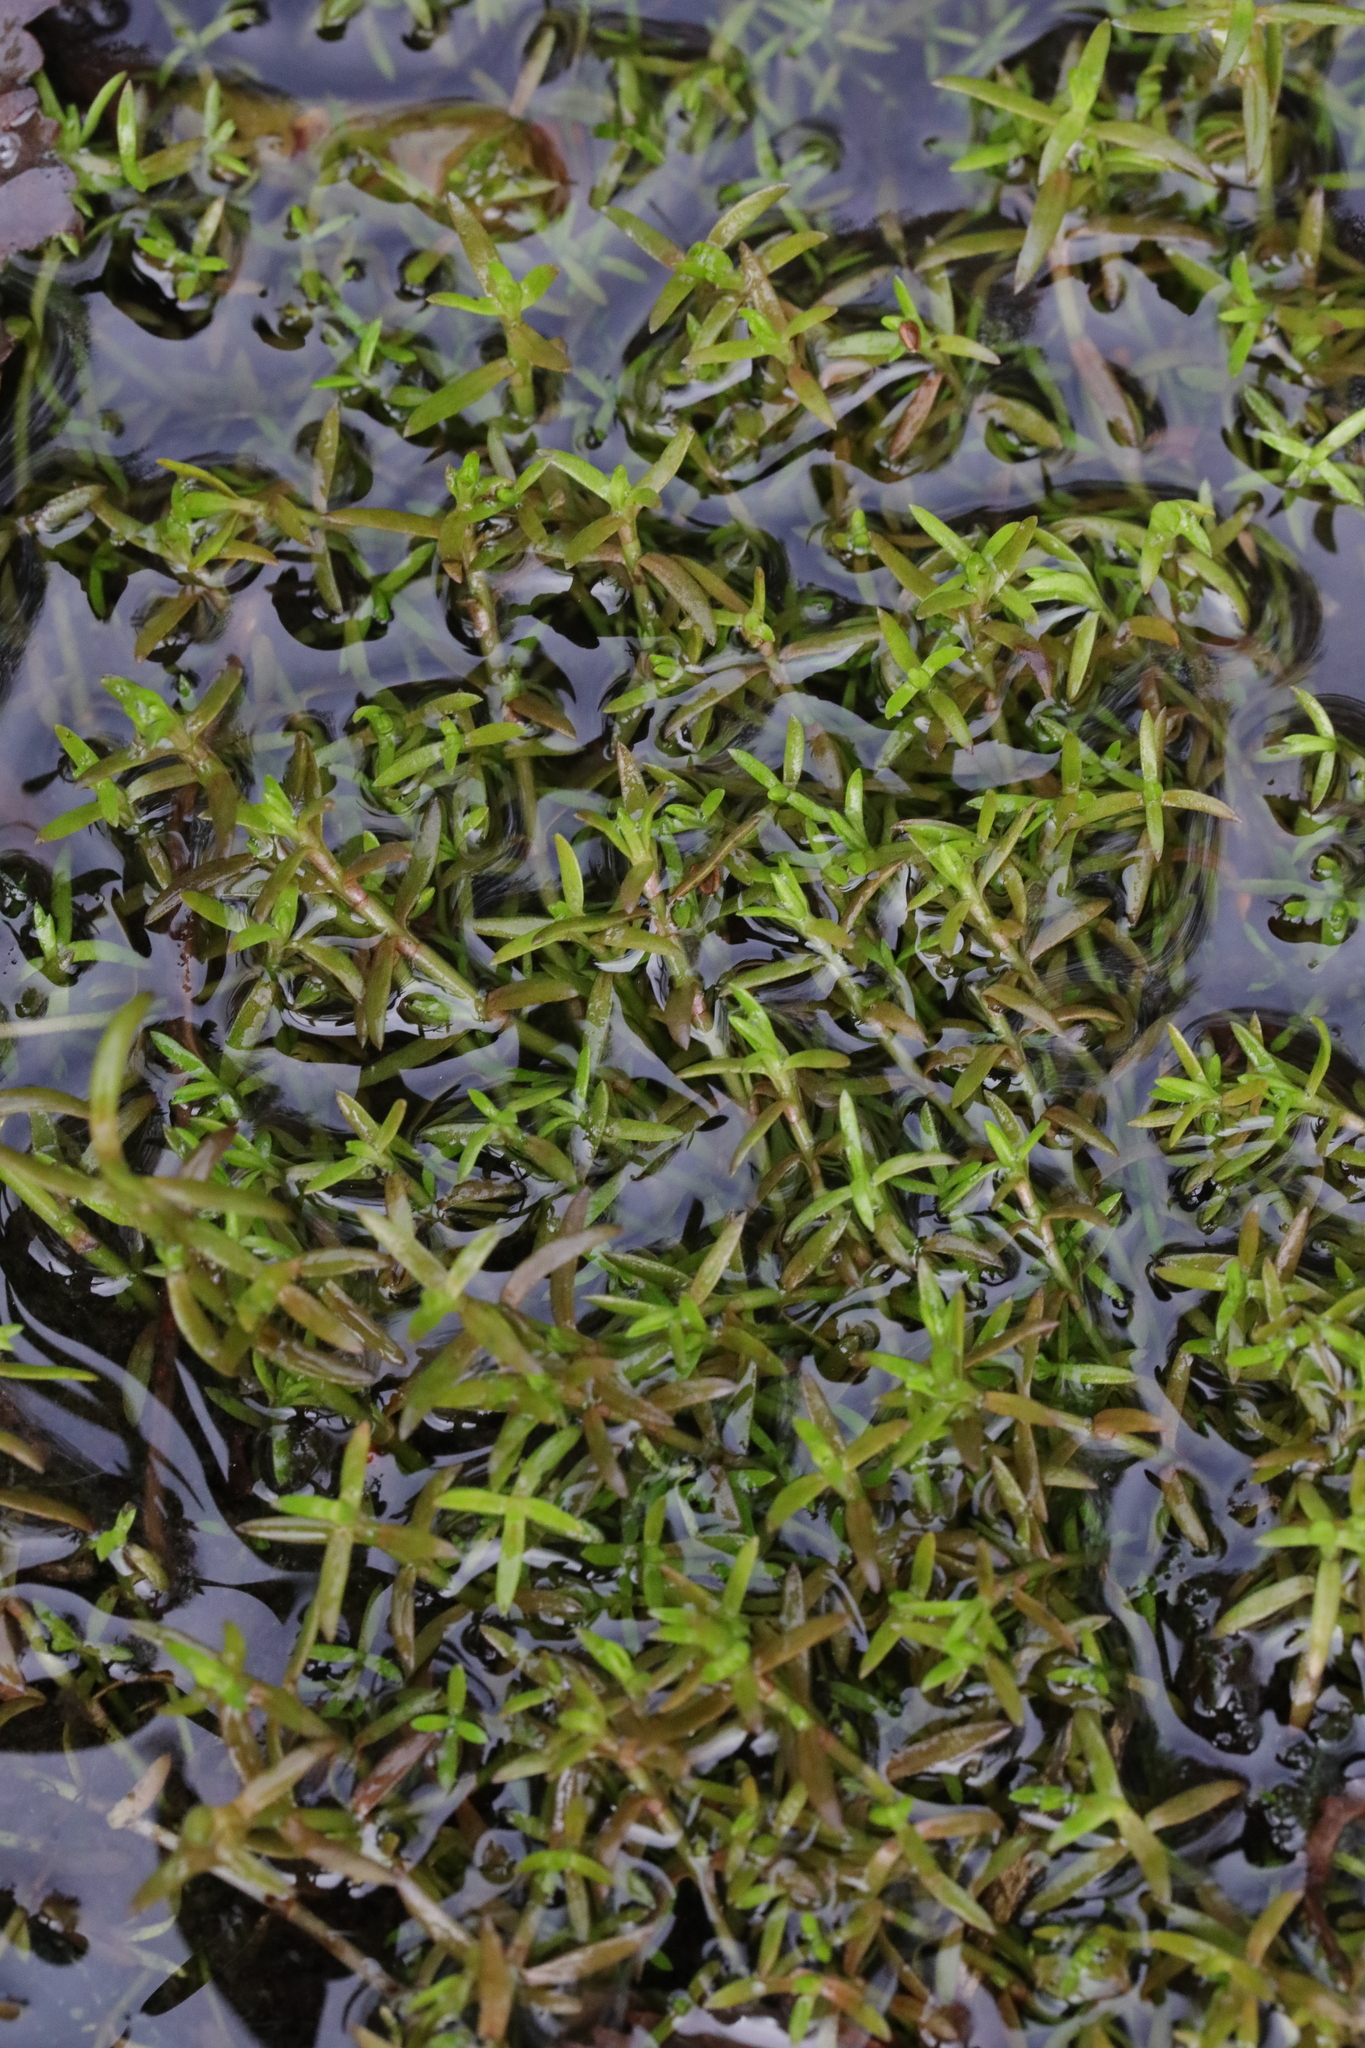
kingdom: Plantae
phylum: Tracheophyta
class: Magnoliopsida
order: Saxifragales
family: Crassulaceae
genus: Crassula
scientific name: Crassula helmsii
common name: New zealand pigmyweed
